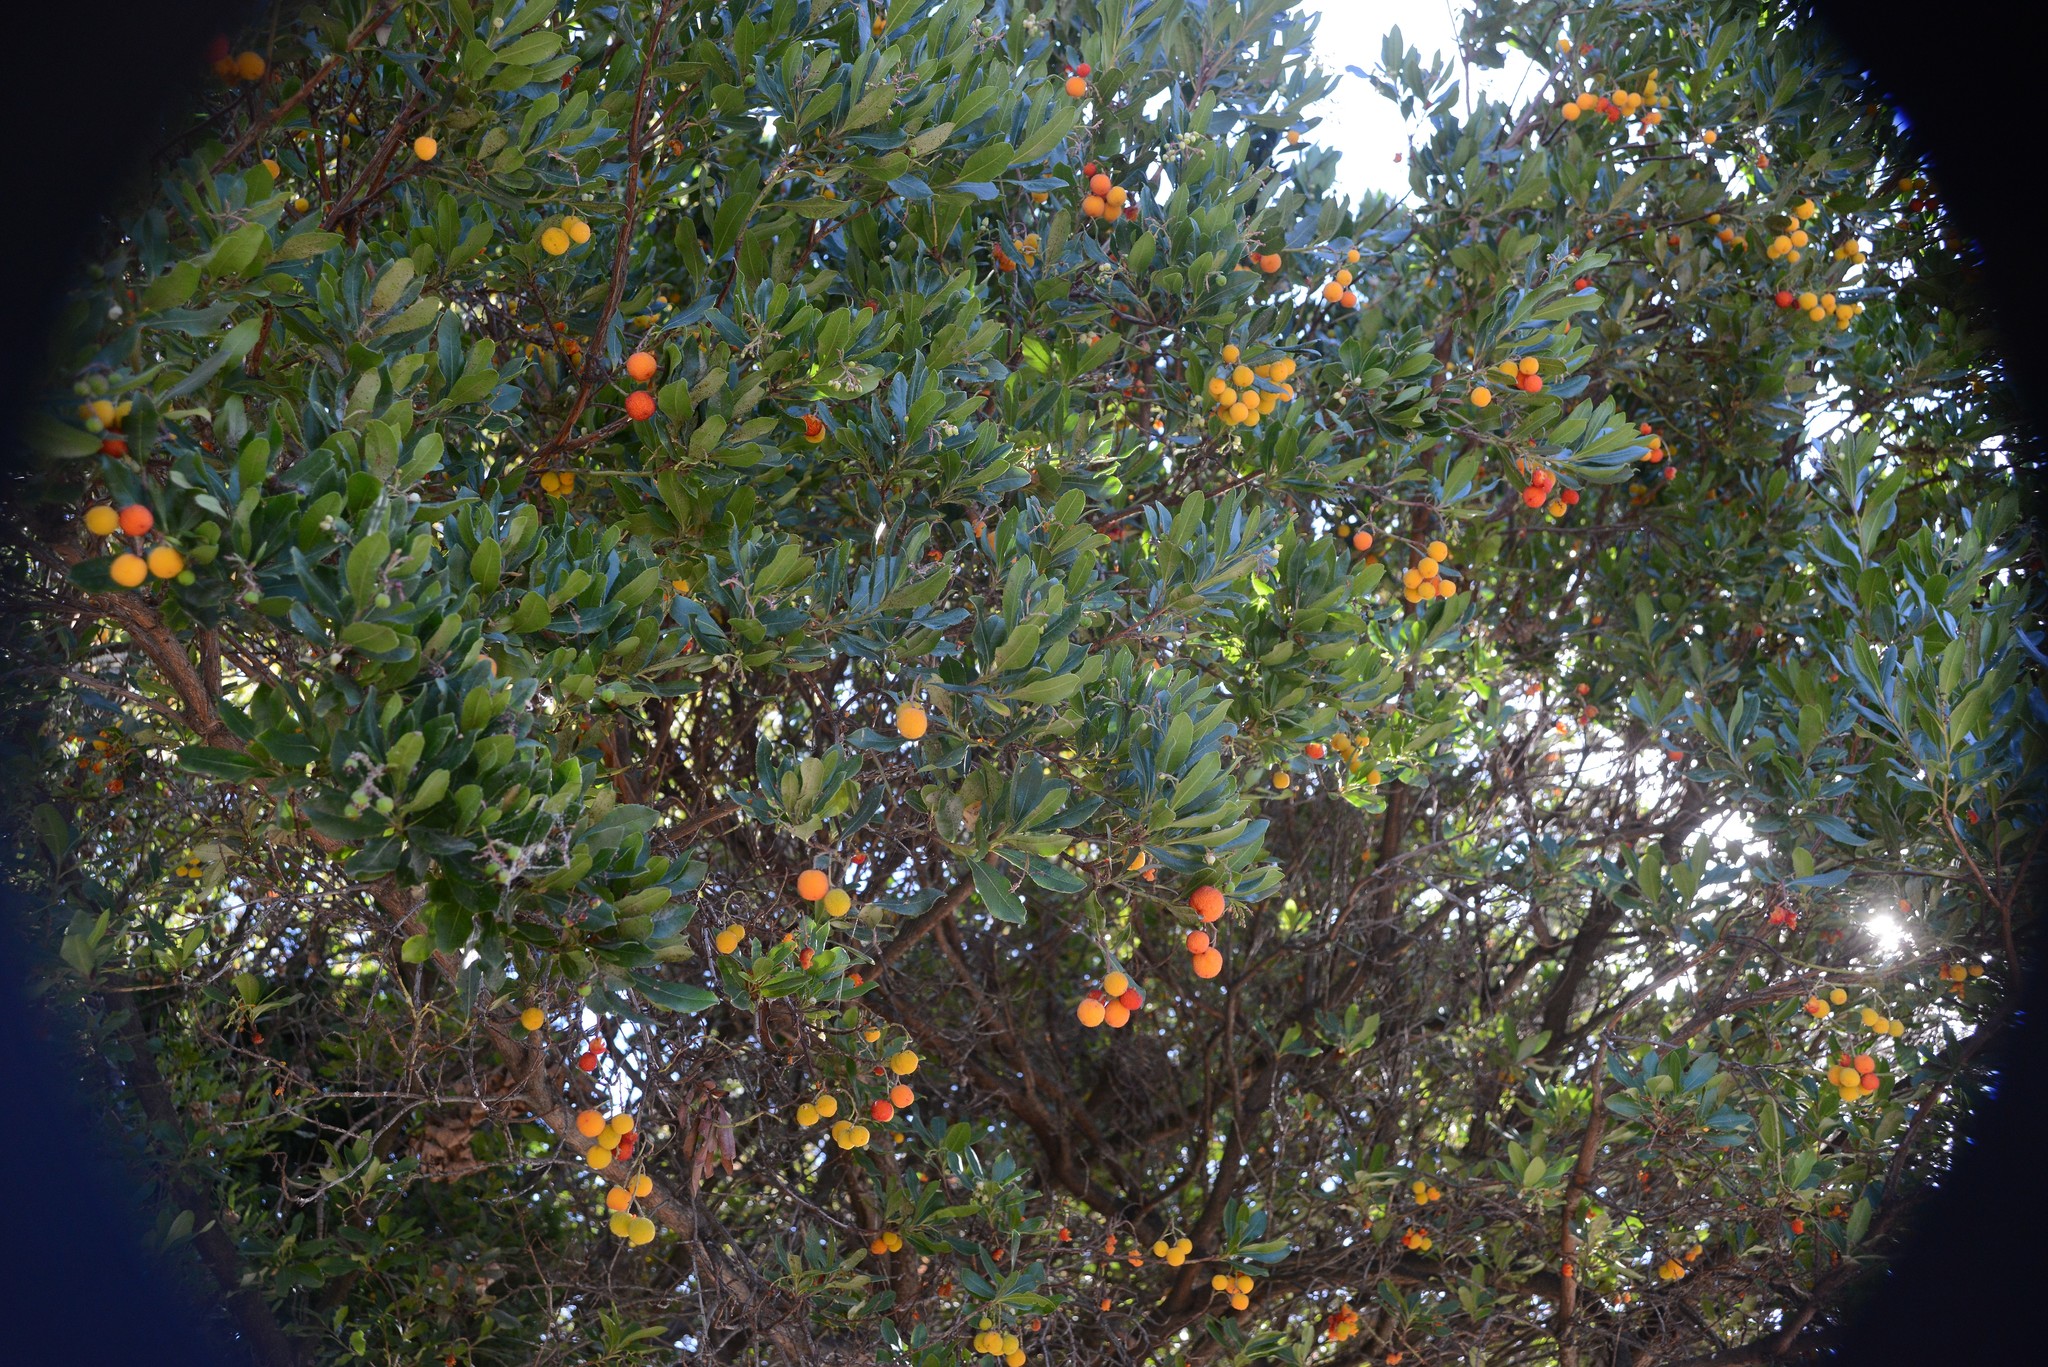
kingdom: Plantae
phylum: Tracheophyta
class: Magnoliopsida
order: Ericales
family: Ericaceae
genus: Arbutus
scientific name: Arbutus unedo
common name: Strawberry-tree
